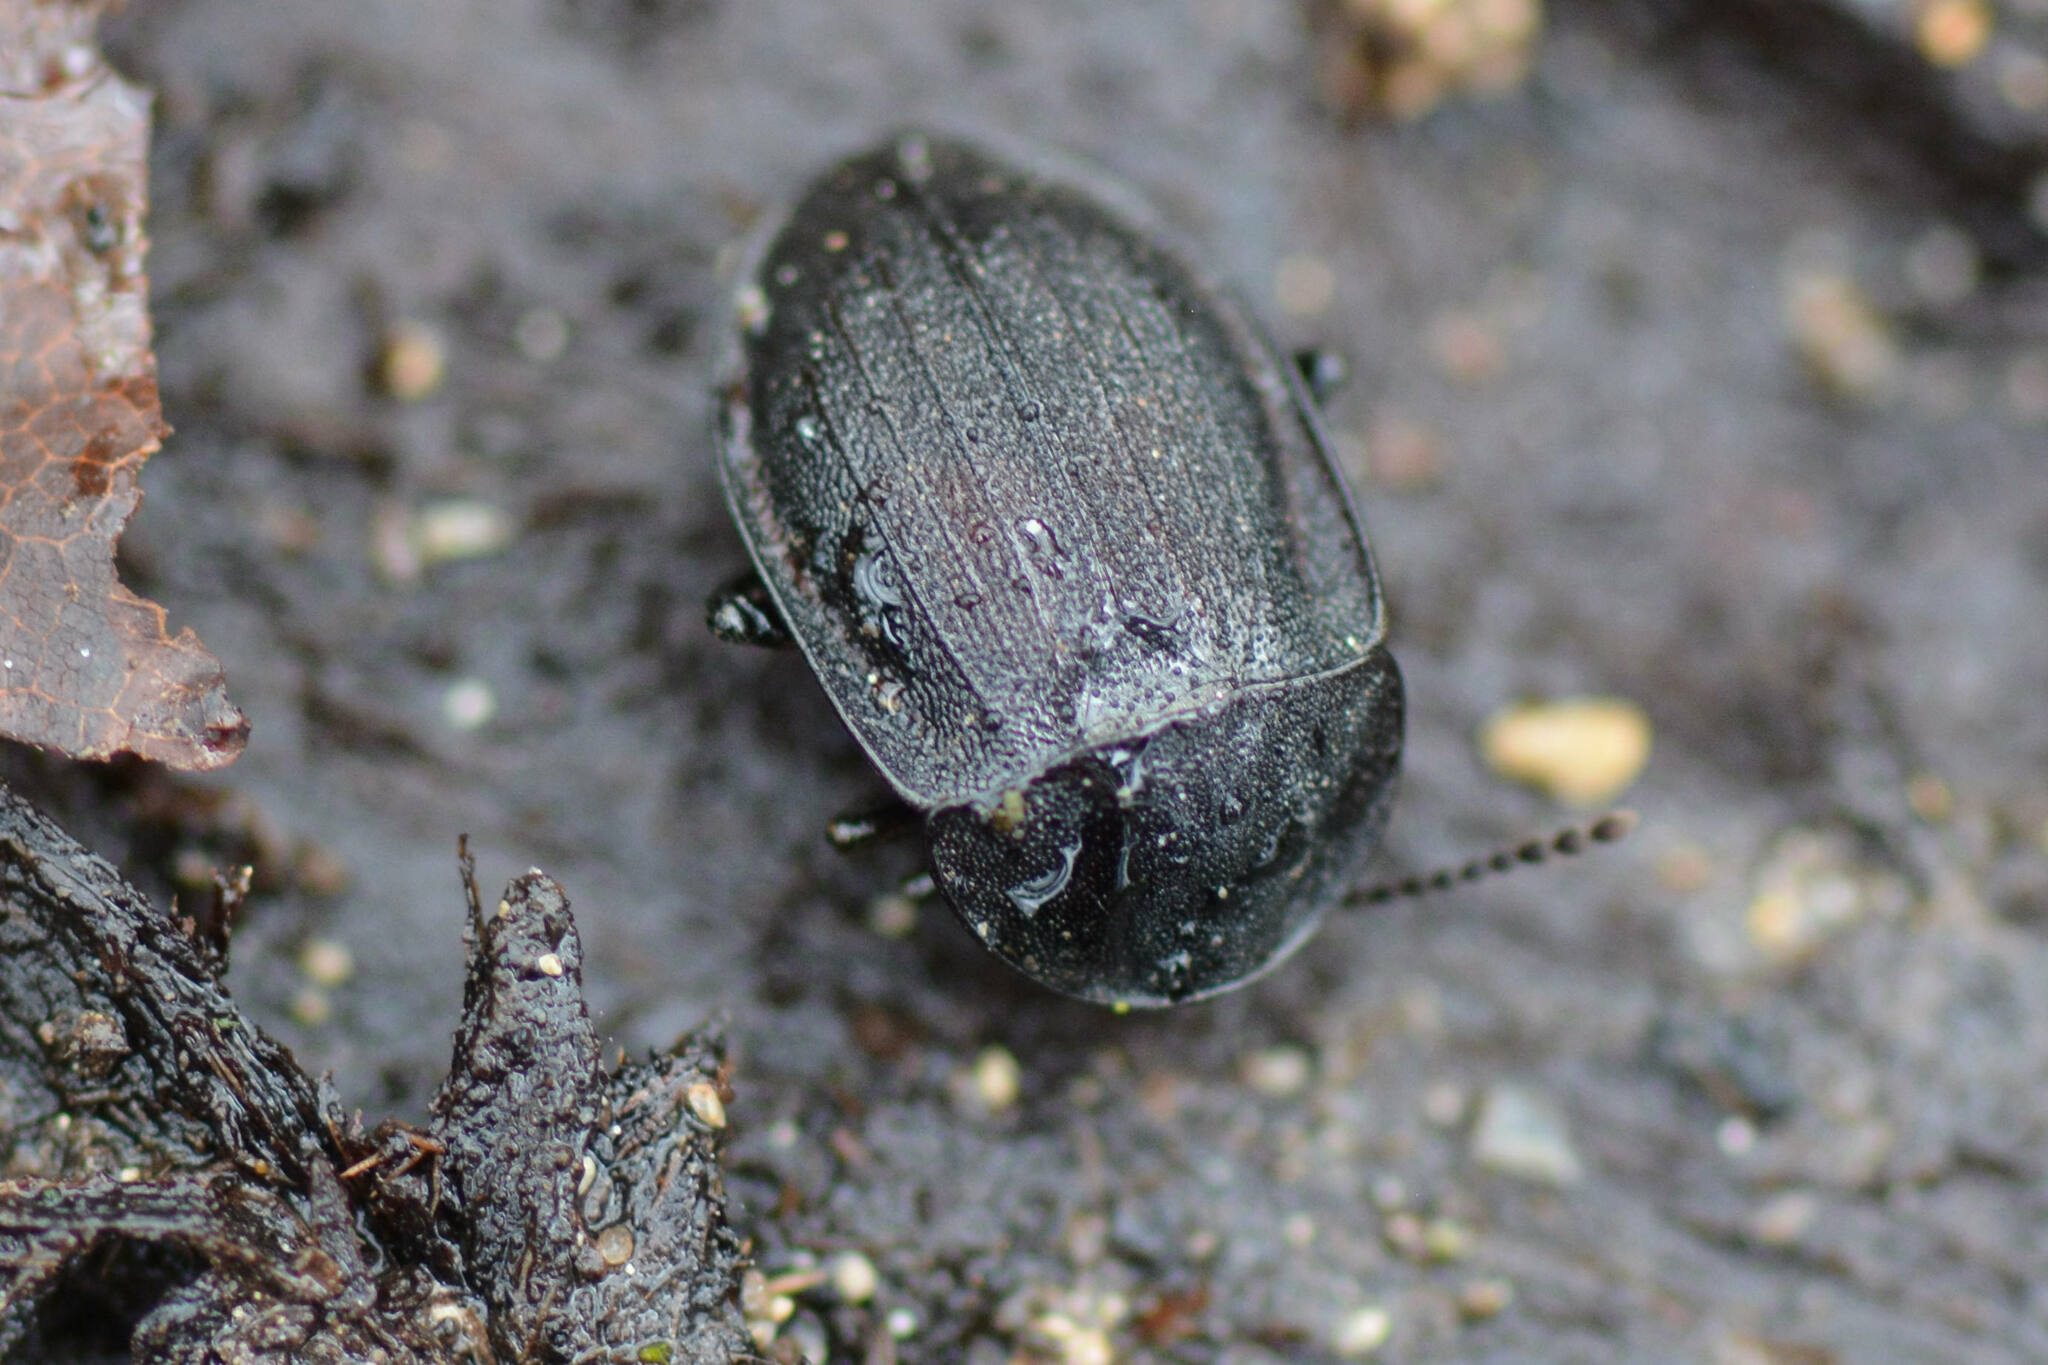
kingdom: Animalia
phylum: Arthropoda
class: Insecta
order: Coleoptera
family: Staphylinidae
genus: Silpha
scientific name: Silpha atrata
